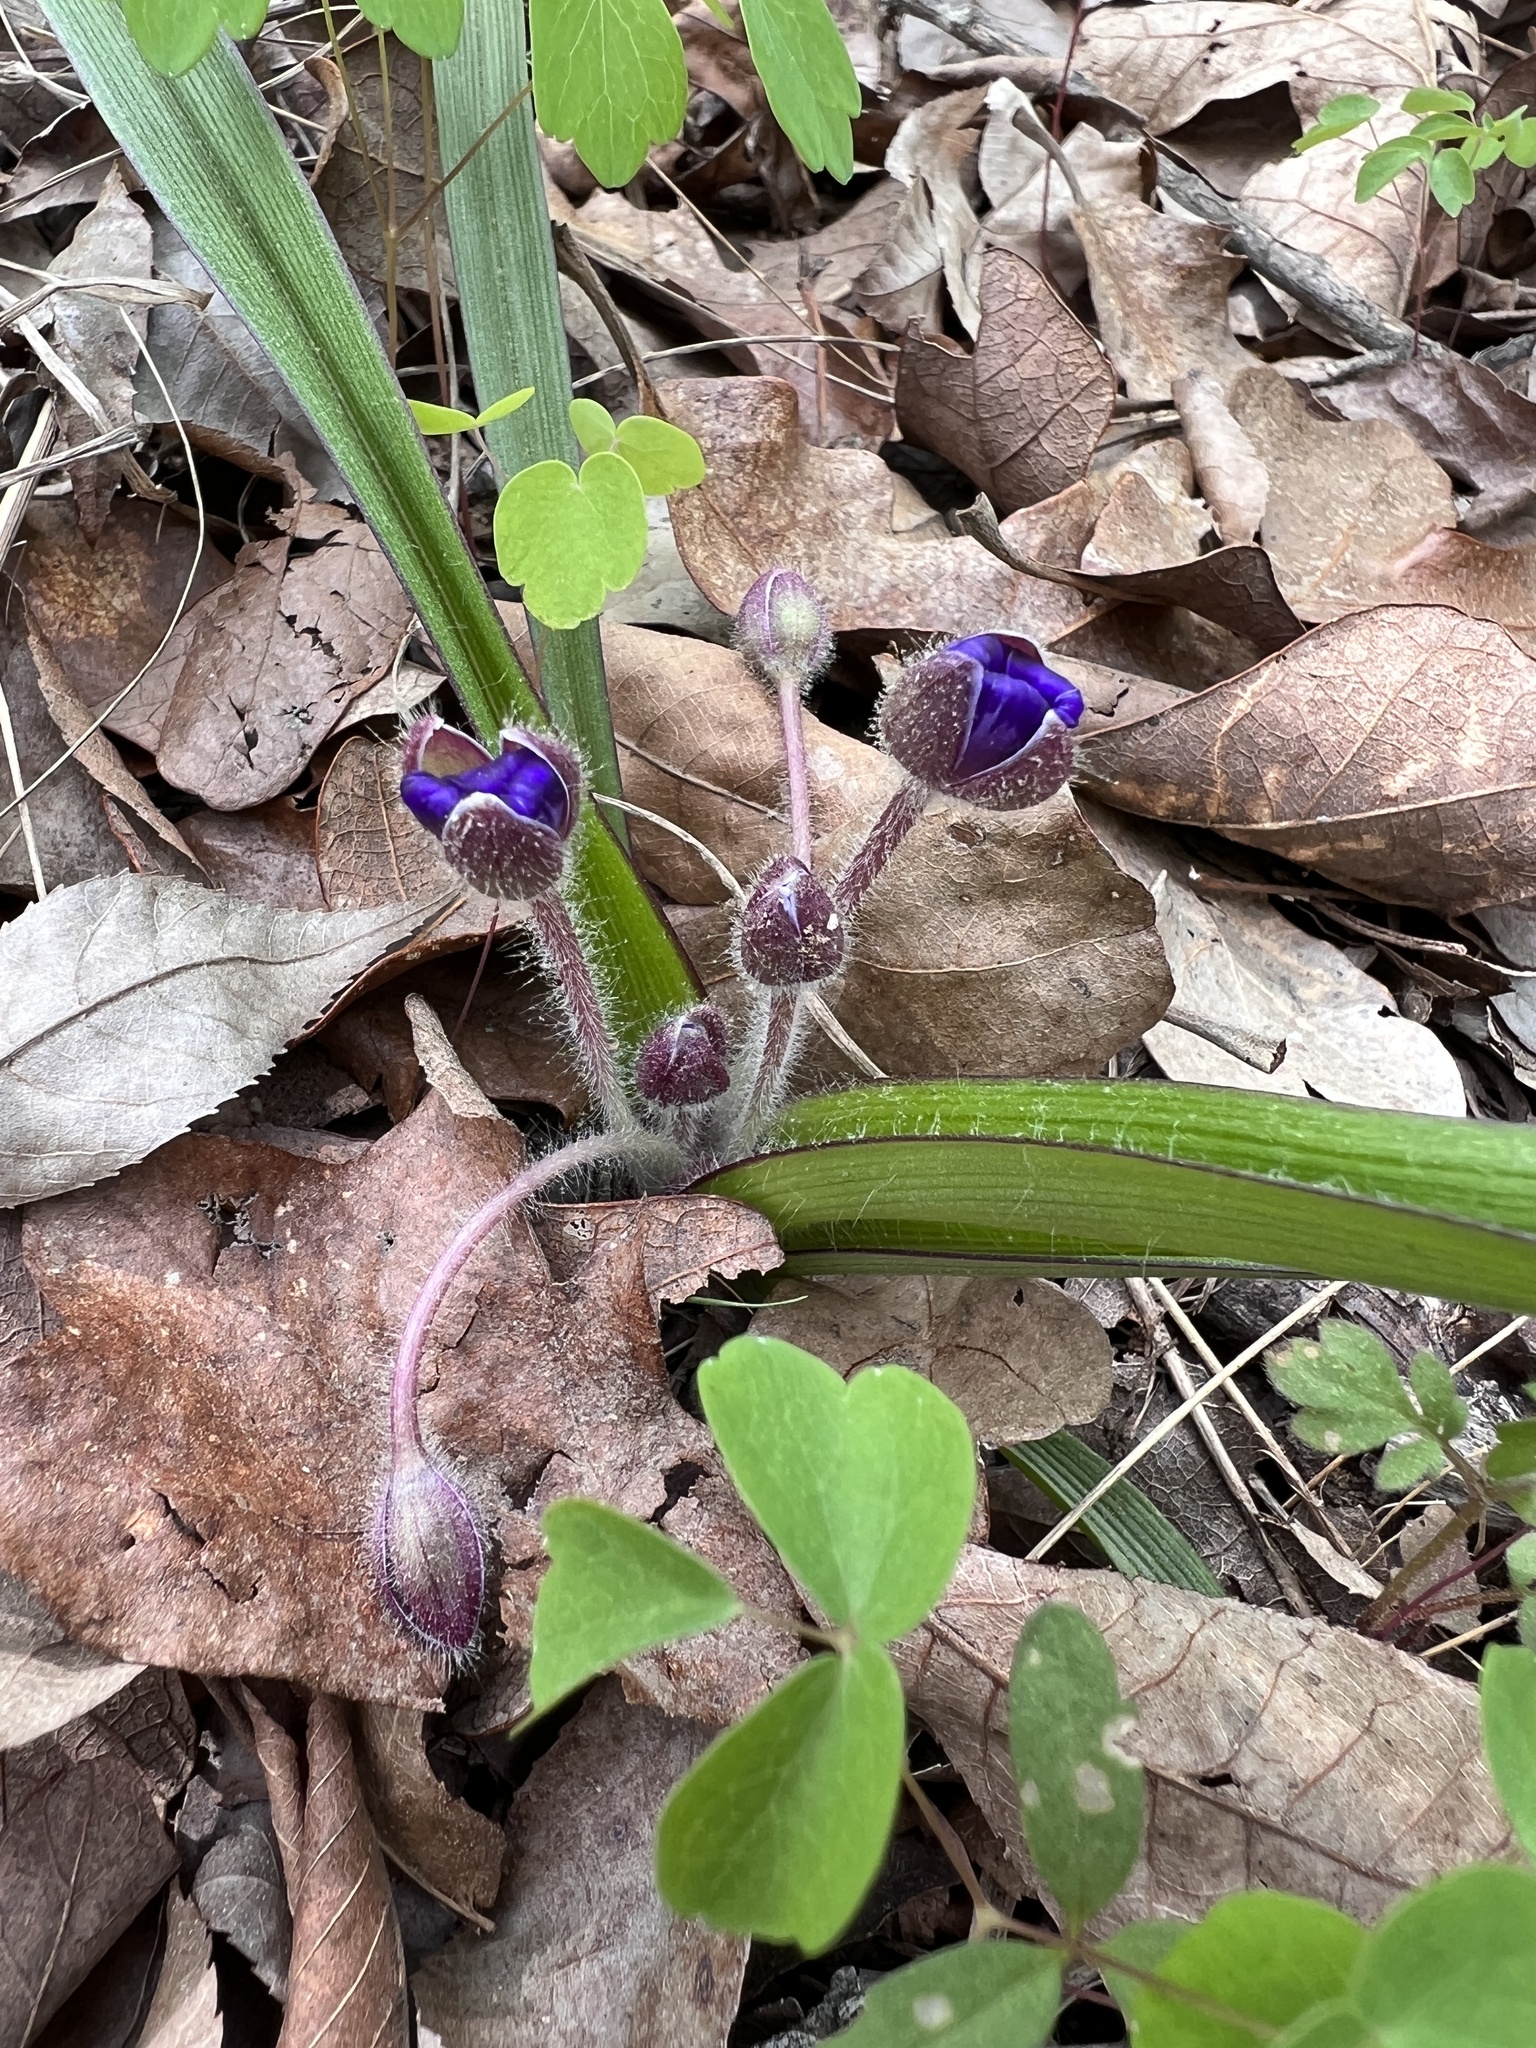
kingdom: Plantae
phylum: Tracheophyta
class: Liliopsida
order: Commelinales
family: Commelinaceae
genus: Tradescantia
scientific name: Tradescantia longipes
